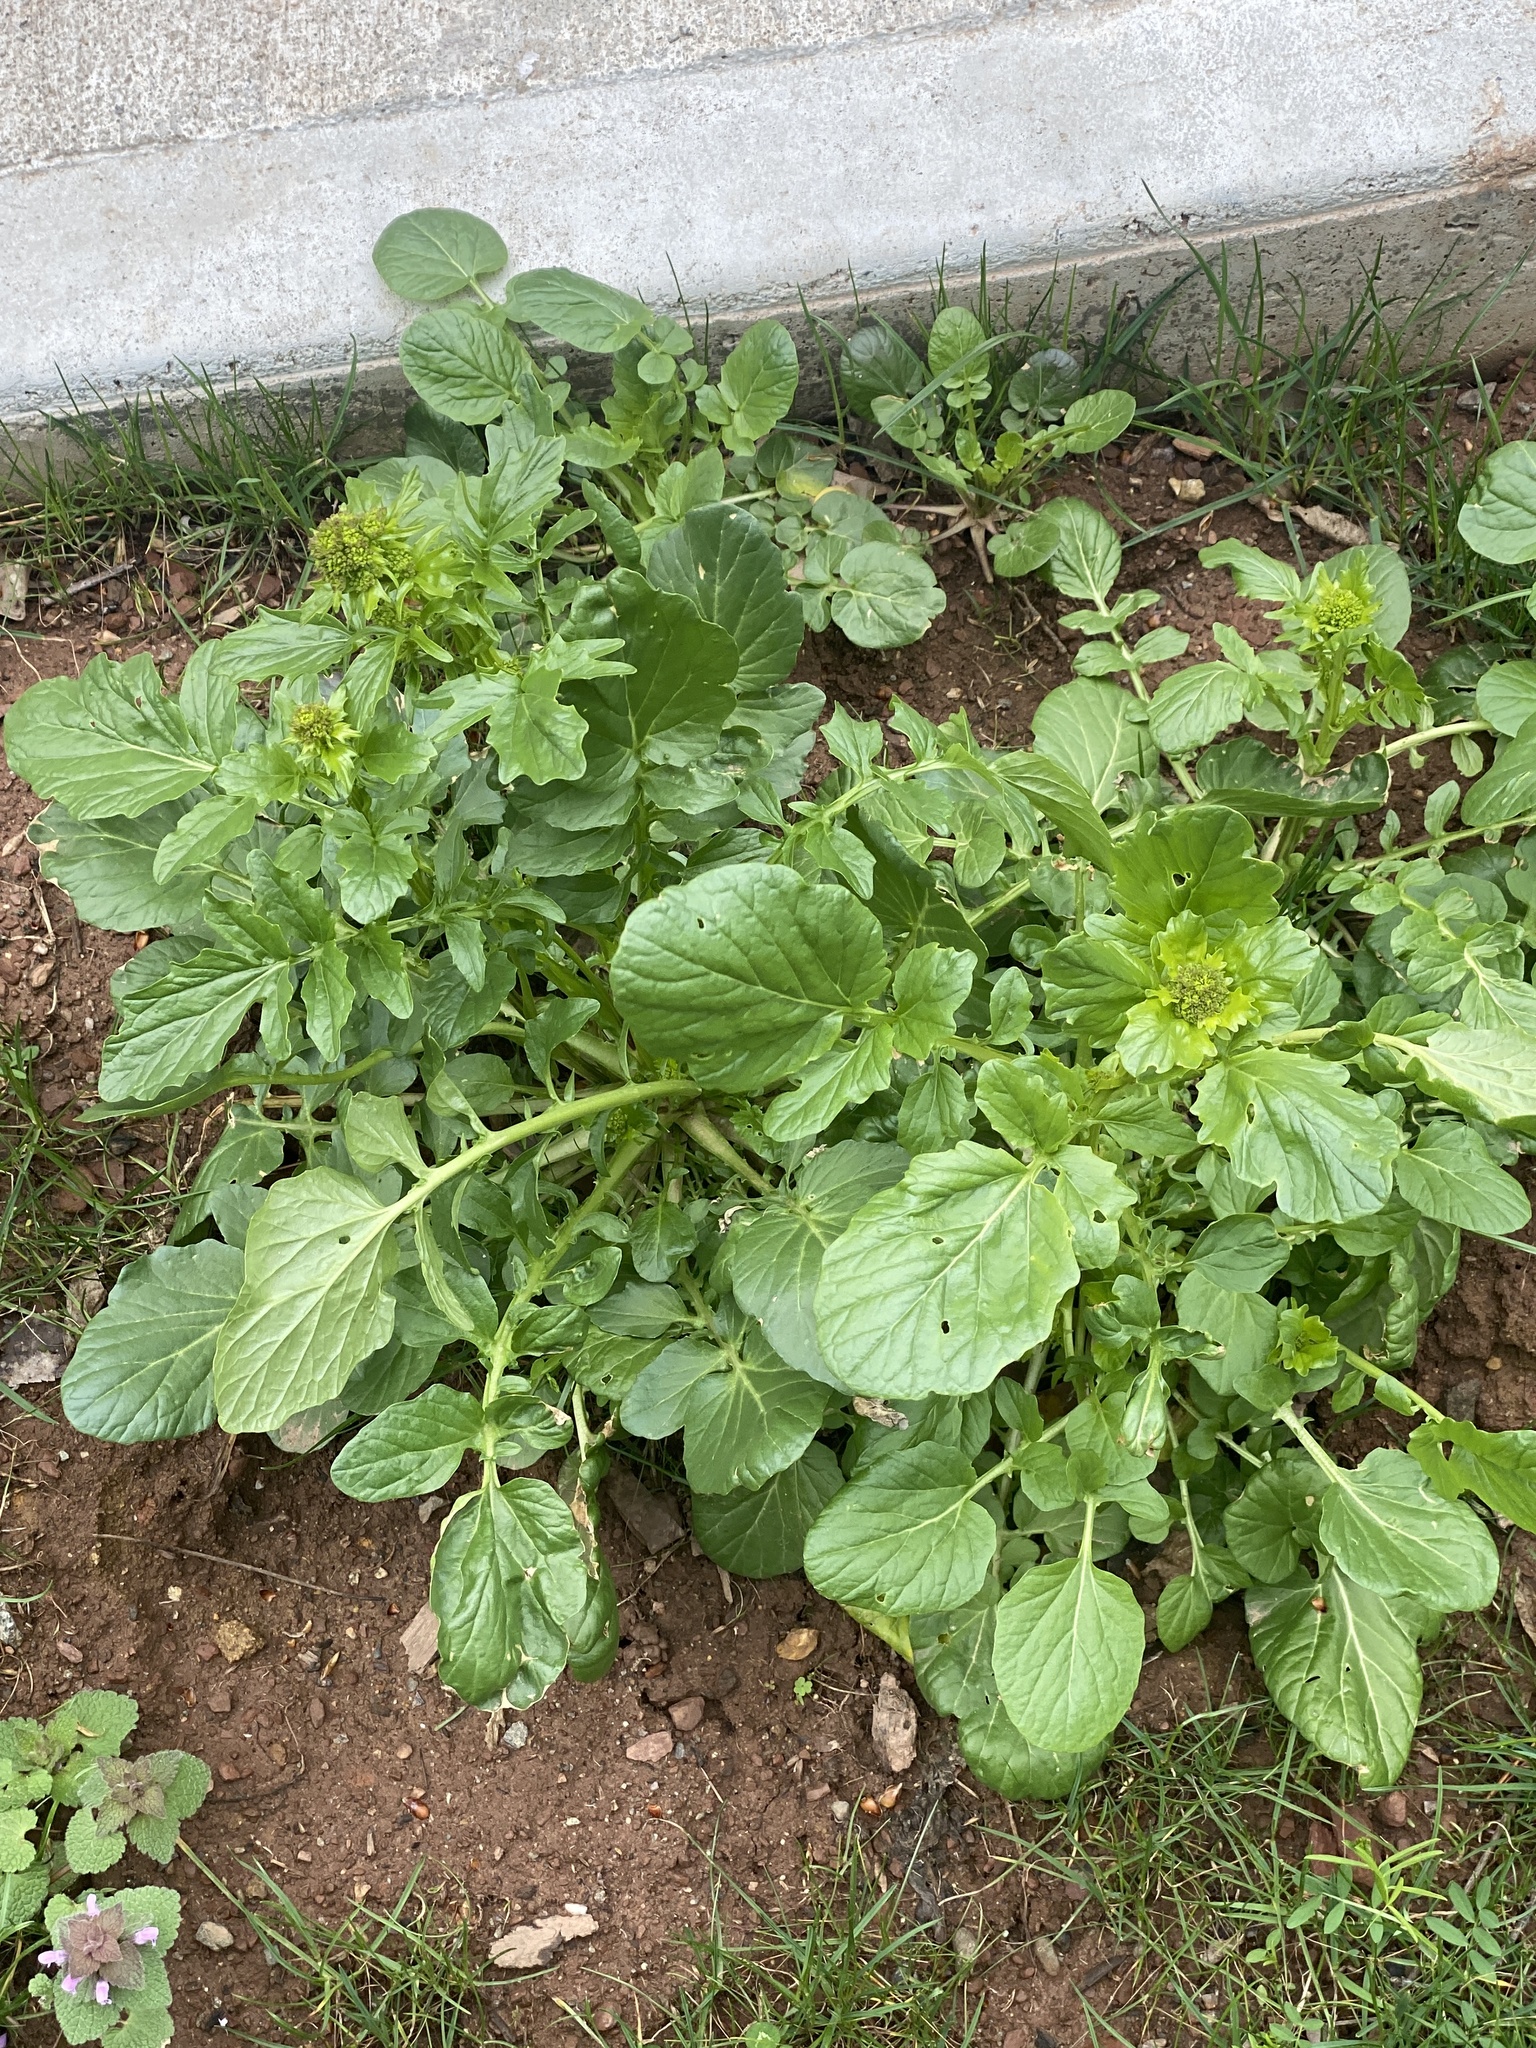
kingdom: Plantae
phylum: Tracheophyta
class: Magnoliopsida
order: Brassicales
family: Brassicaceae
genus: Barbarea
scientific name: Barbarea vulgaris
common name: Cressy-greens
